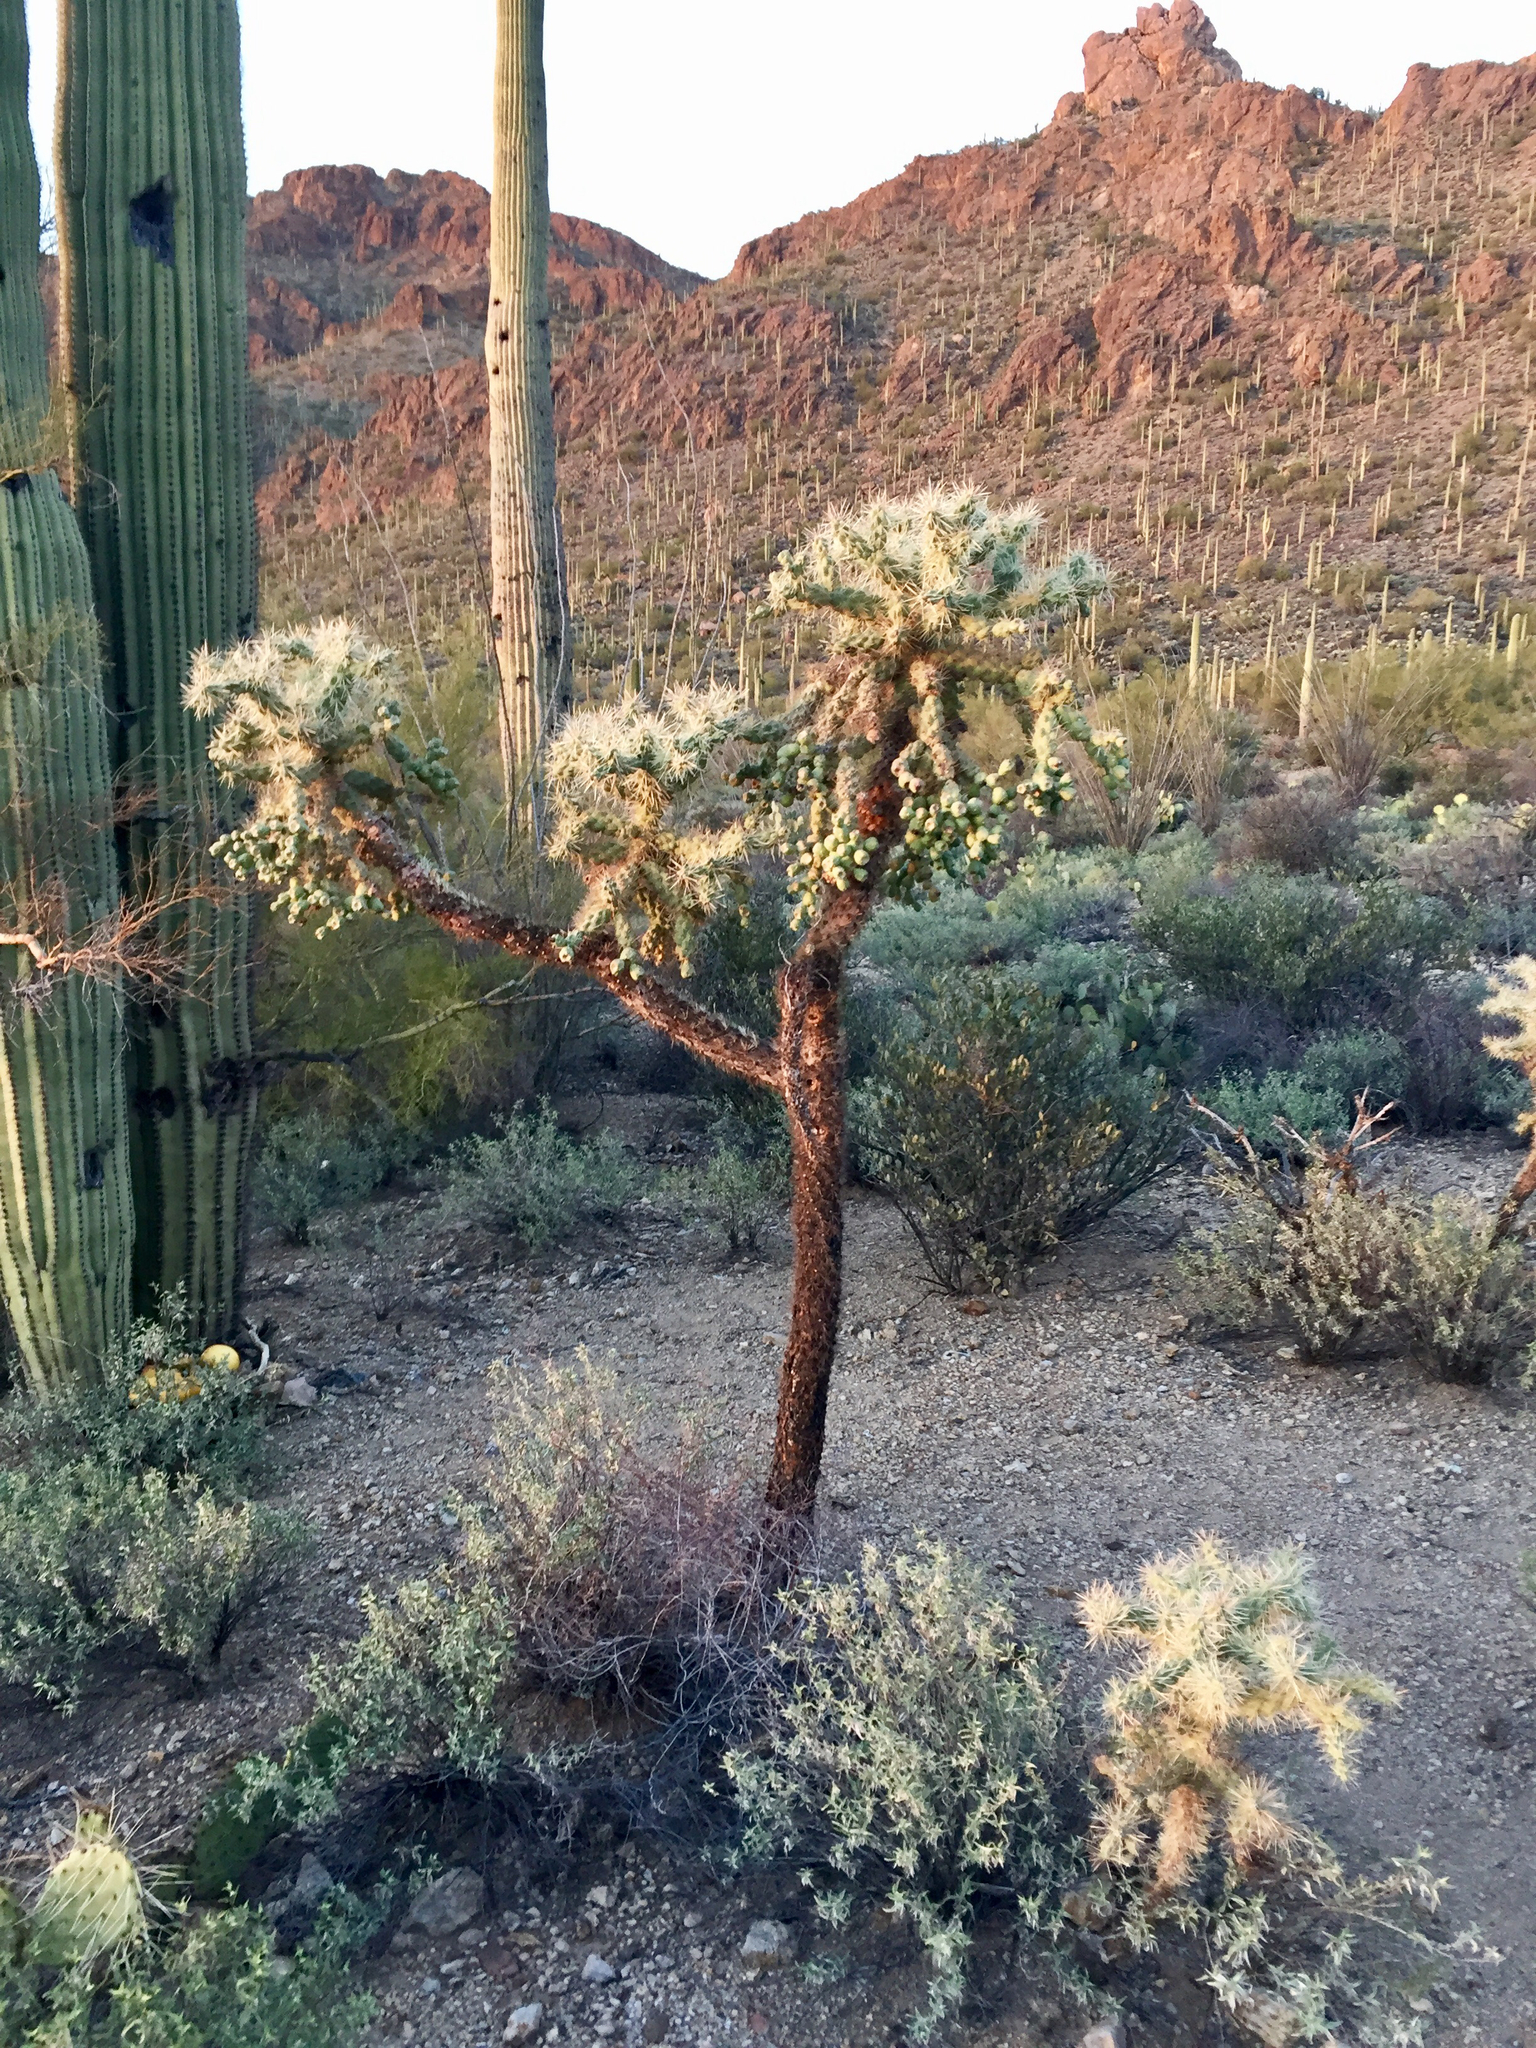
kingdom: Plantae
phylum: Tracheophyta
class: Magnoliopsida
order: Caryophyllales
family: Cactaceae
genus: Cylindropuntia
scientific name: Cylindropuntia fulgida
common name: Jumping cholla
